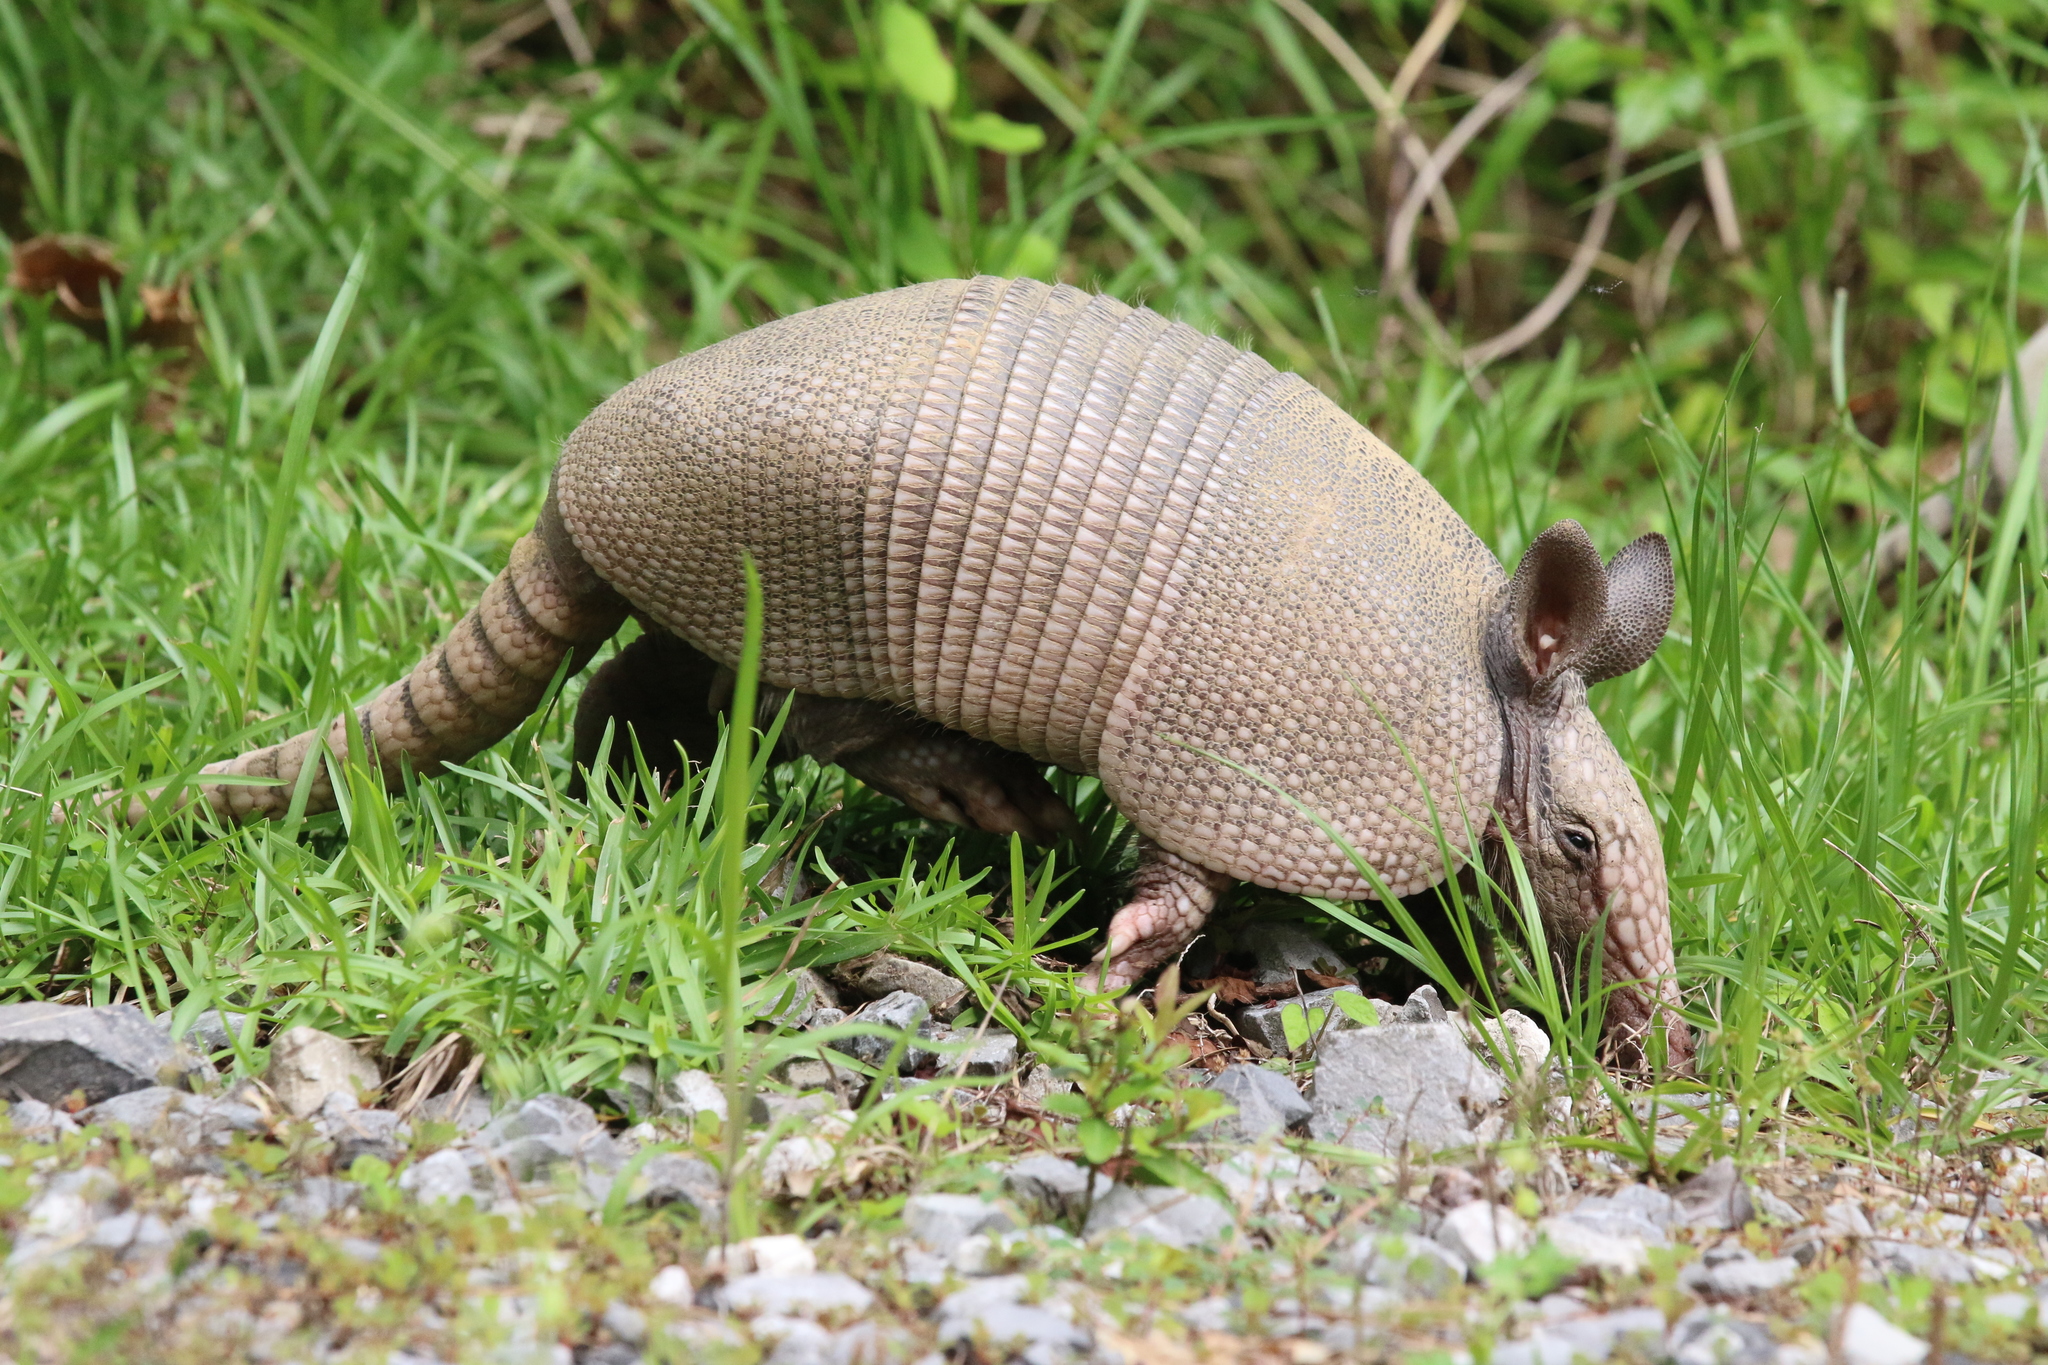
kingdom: Animalia
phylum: Chordata
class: Mammalia
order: Cingulata
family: Dasypodidae
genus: Dasypus
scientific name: Dasypus novemcinctus
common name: Nine-banded armadillo
